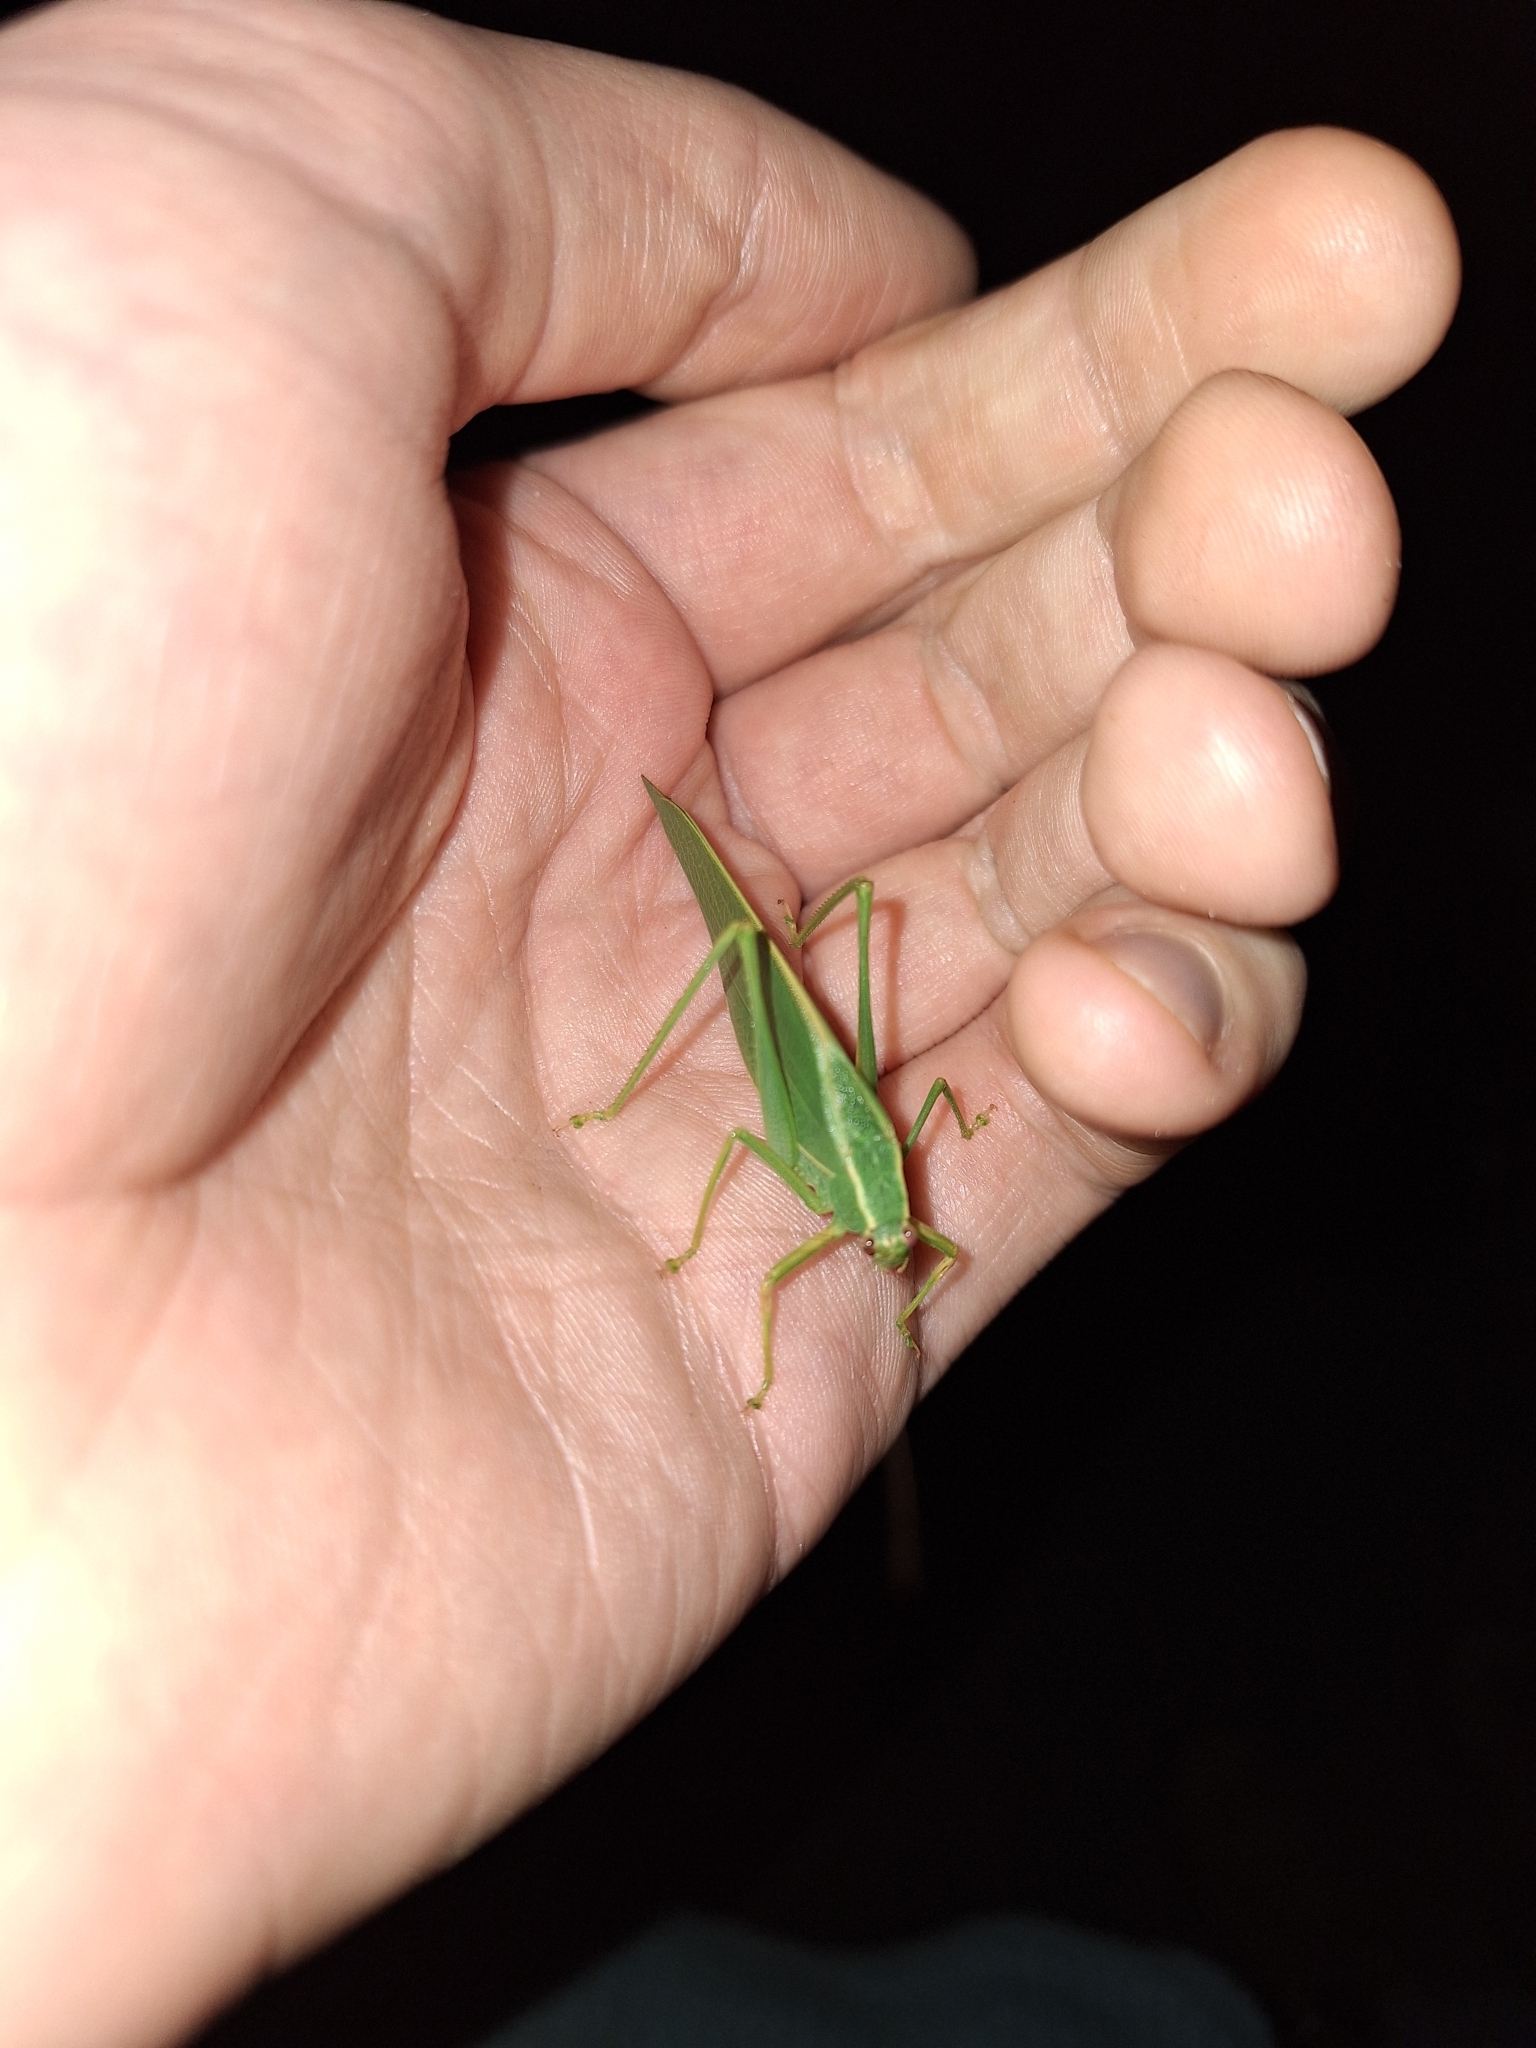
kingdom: Animalia
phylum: Arthropoda
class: Insecta
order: Orthoptera
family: Tettigoniidae
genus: Caedicia
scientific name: Caedicia simplex
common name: Common garden katydid
